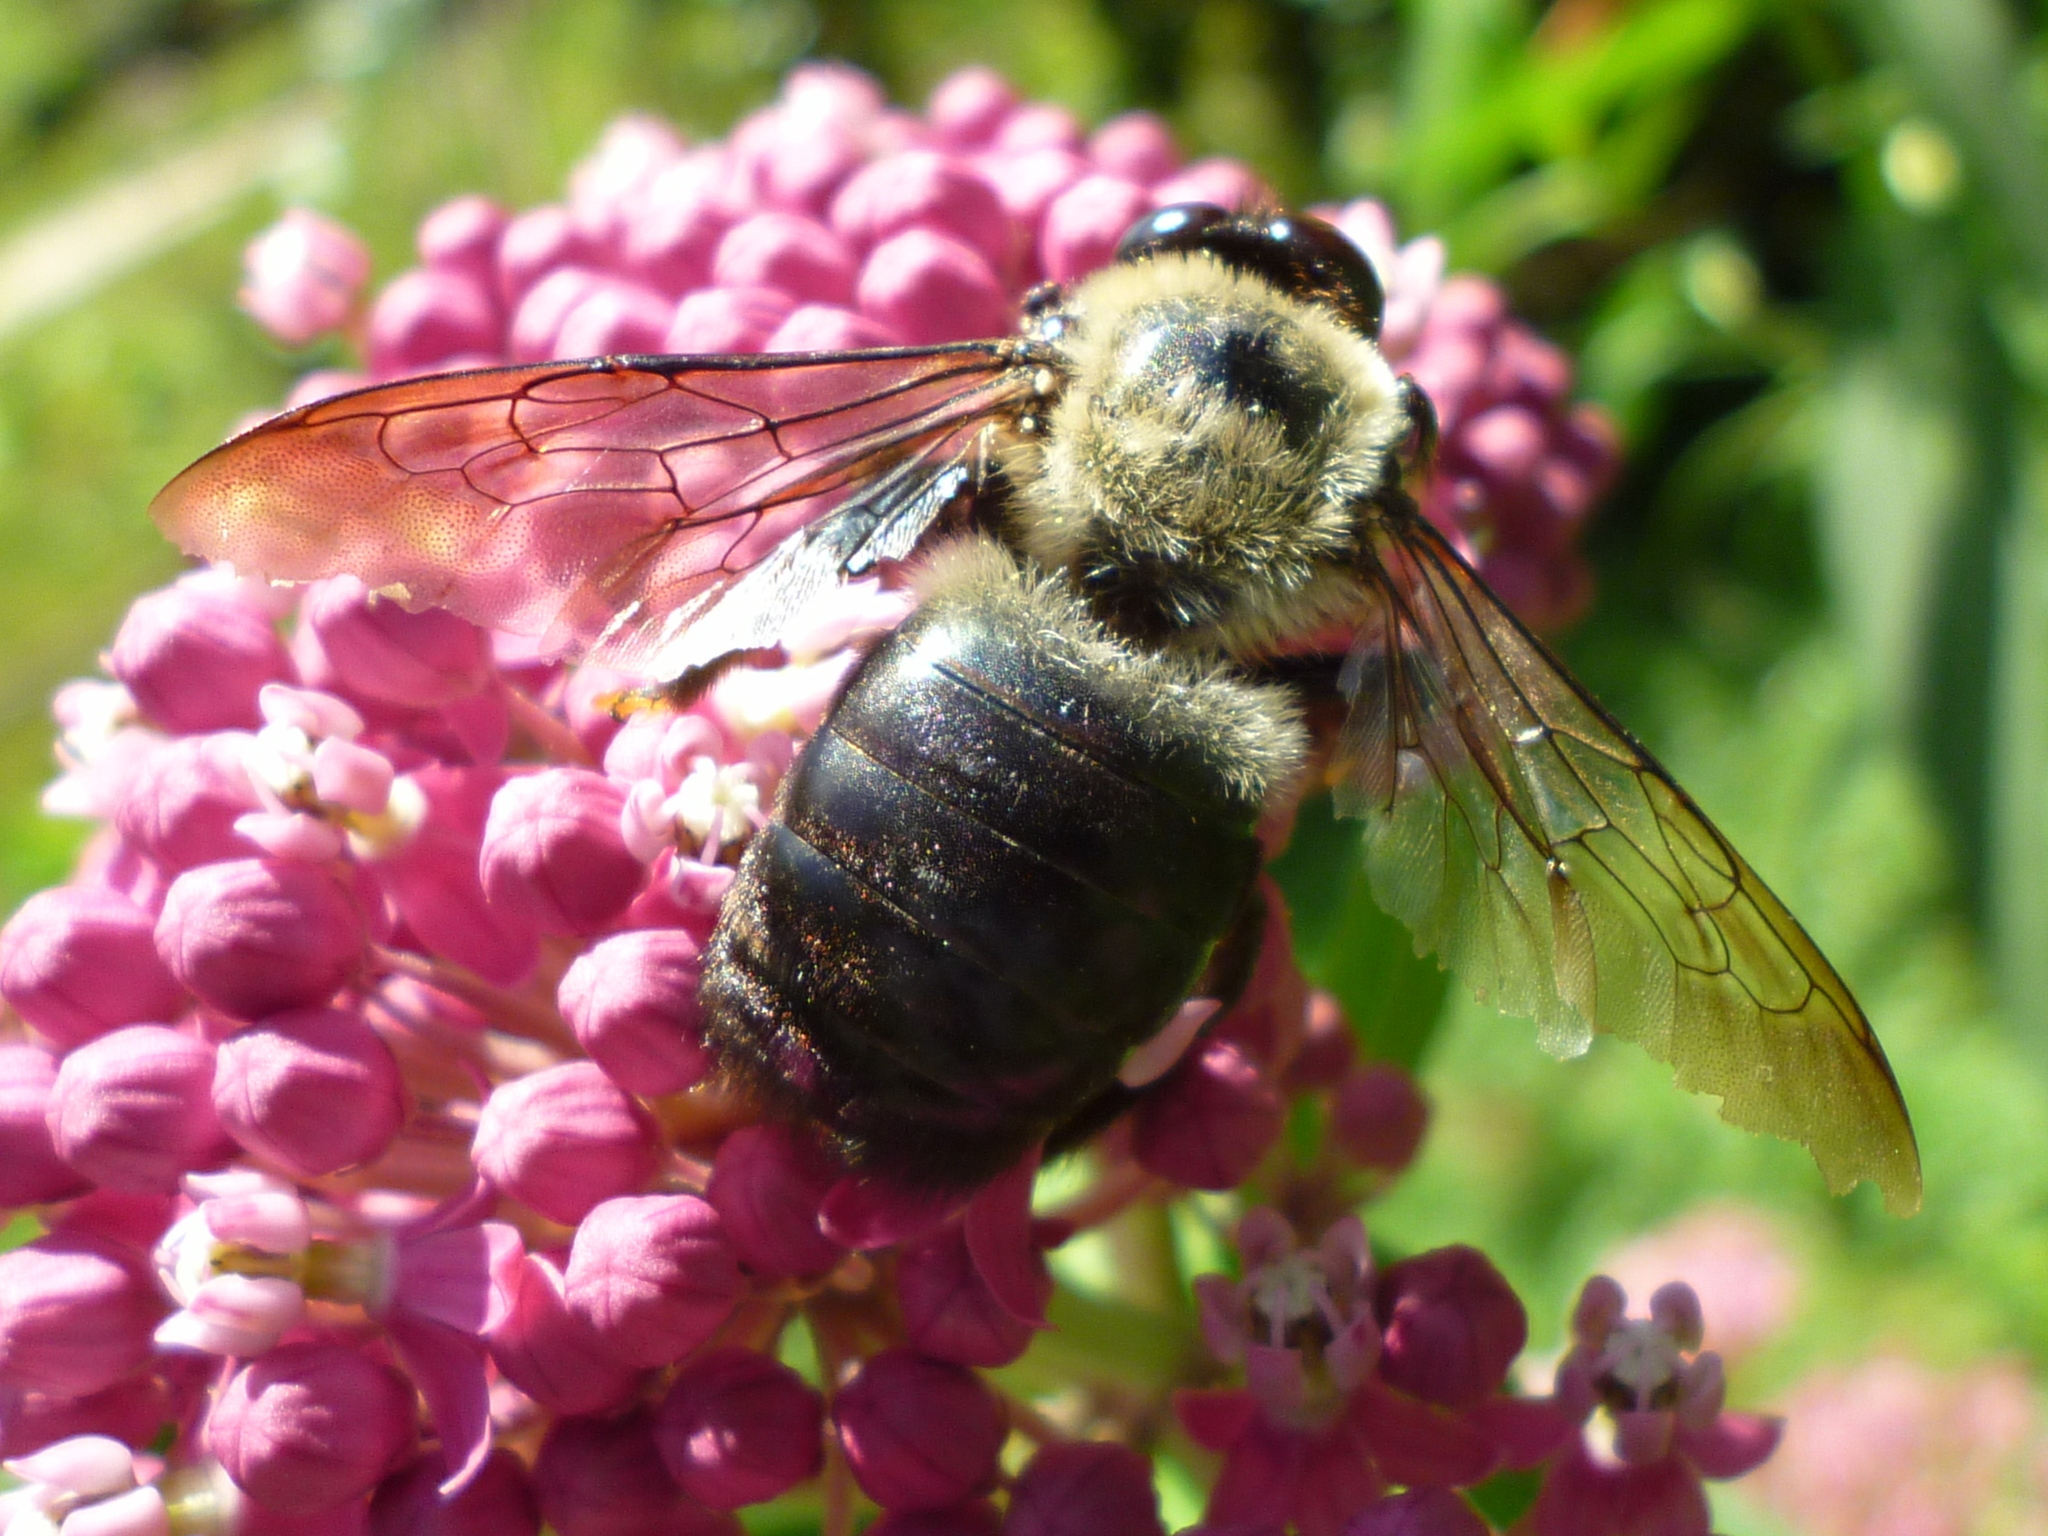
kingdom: Animalia
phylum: Arthropoda
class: Insecta
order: Hymenoptera
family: Apidae
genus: Xylocopa
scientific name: Xylocopa virginica
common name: Carpenter bee
